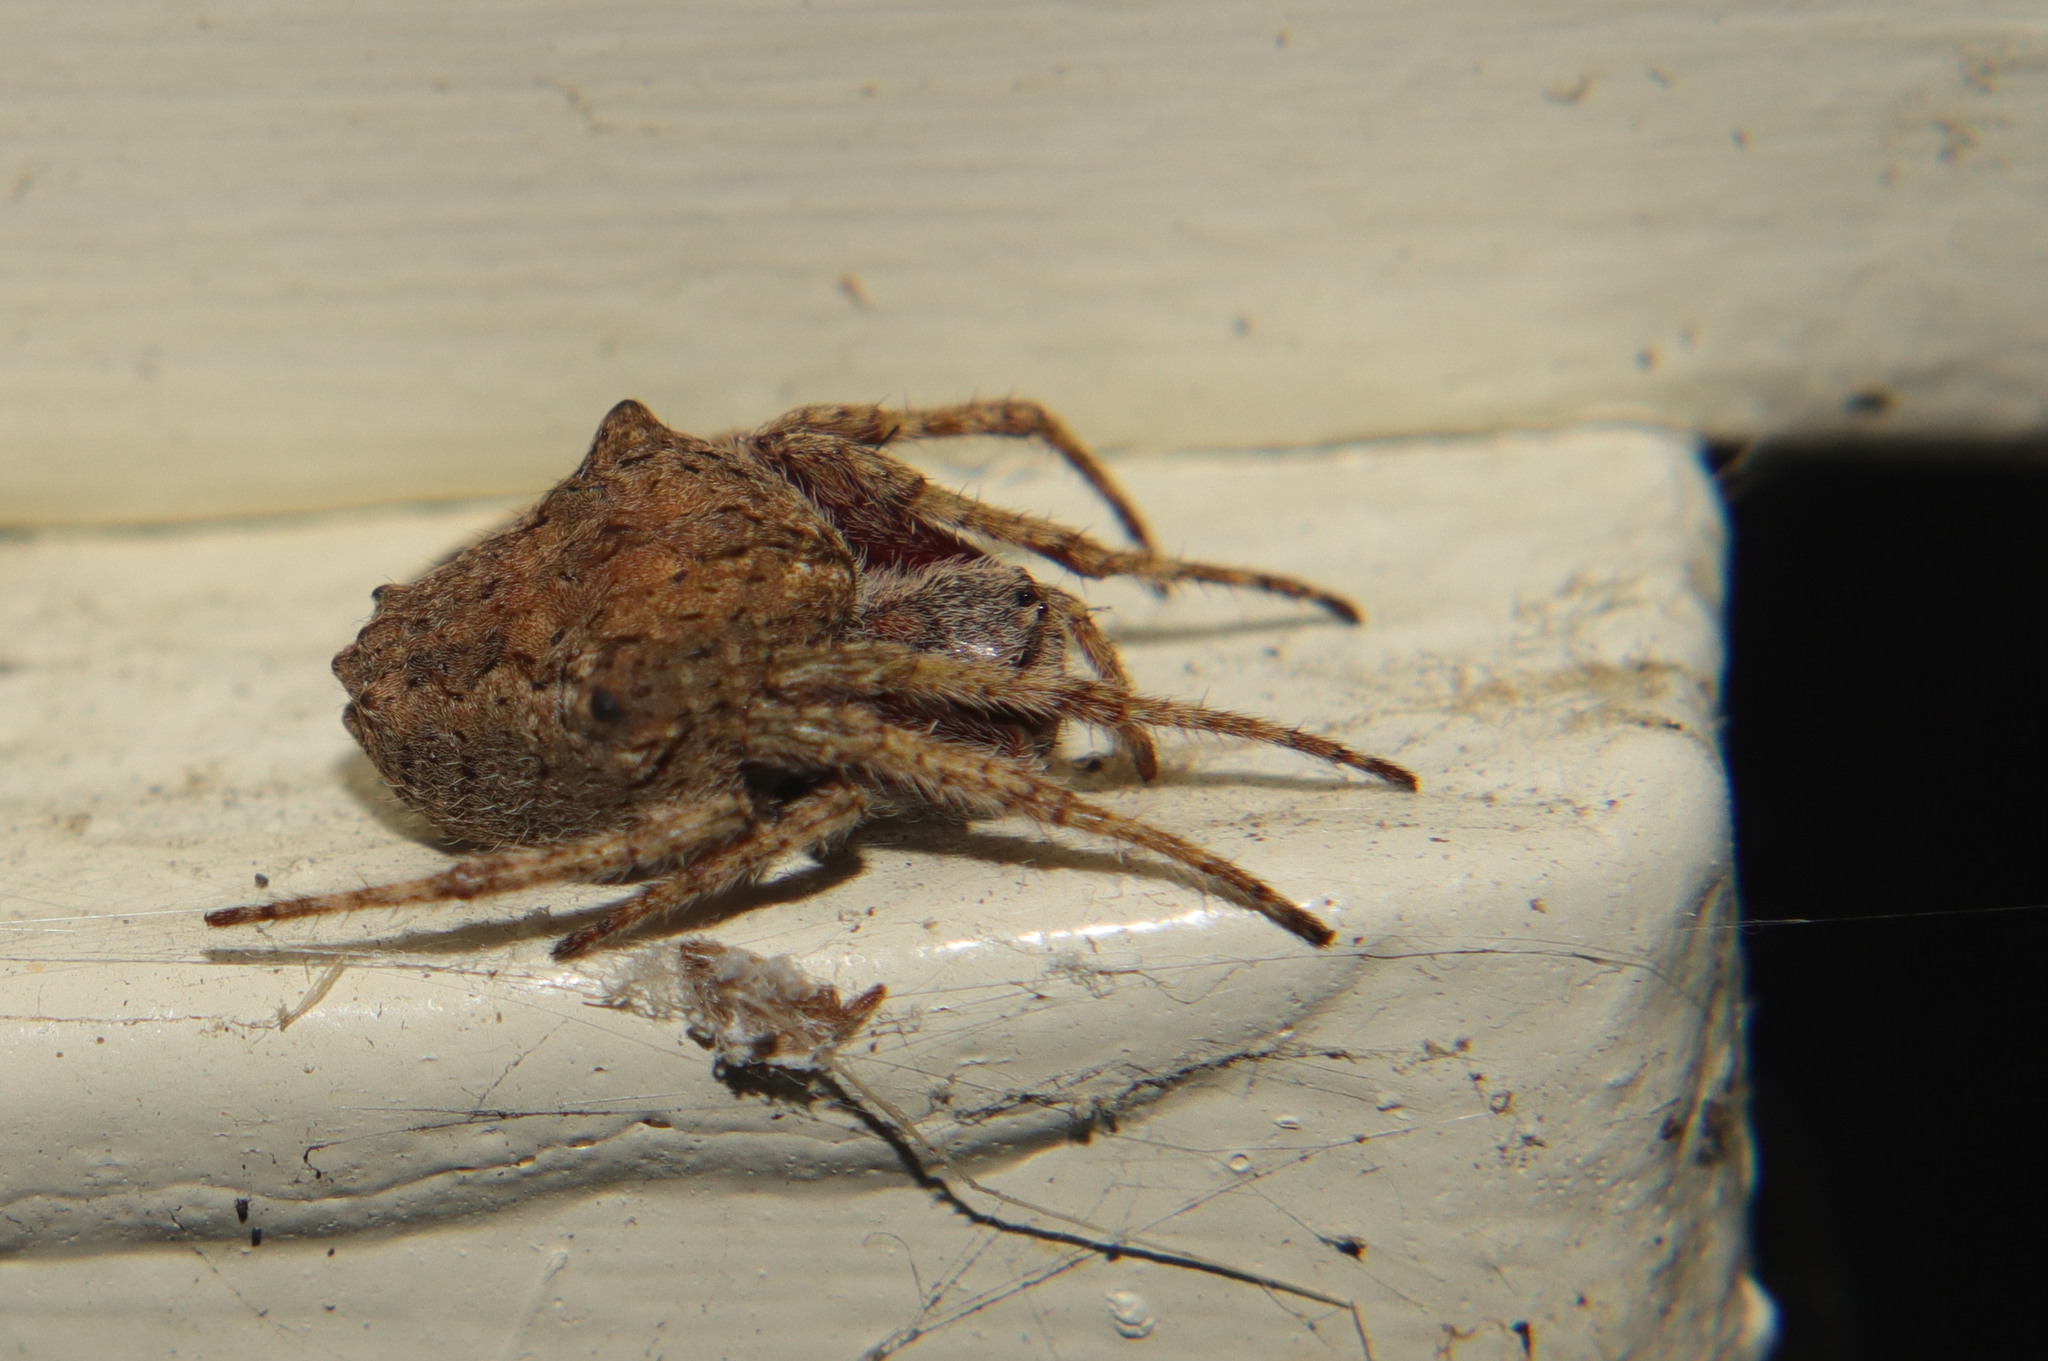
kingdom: Animalia
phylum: Arthropoda
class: Arachnida
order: Araneae
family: Araneidae
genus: Eriophora
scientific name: Eriophora pustulosa
